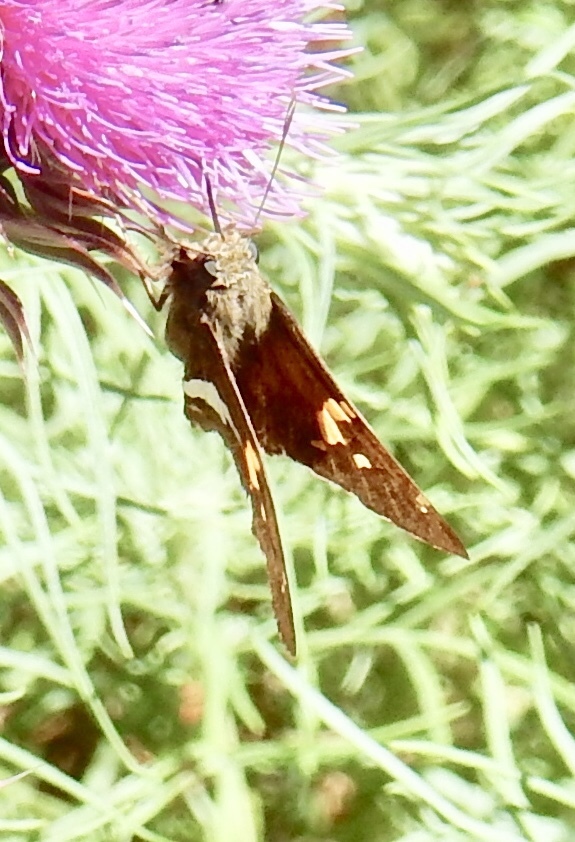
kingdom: Animalia
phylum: Arthropoda
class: Insecta
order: Lepidoptera
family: Hesperiidae
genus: Epargyreus
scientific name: Epargyreus clarus
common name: Silver-spotted skipper
